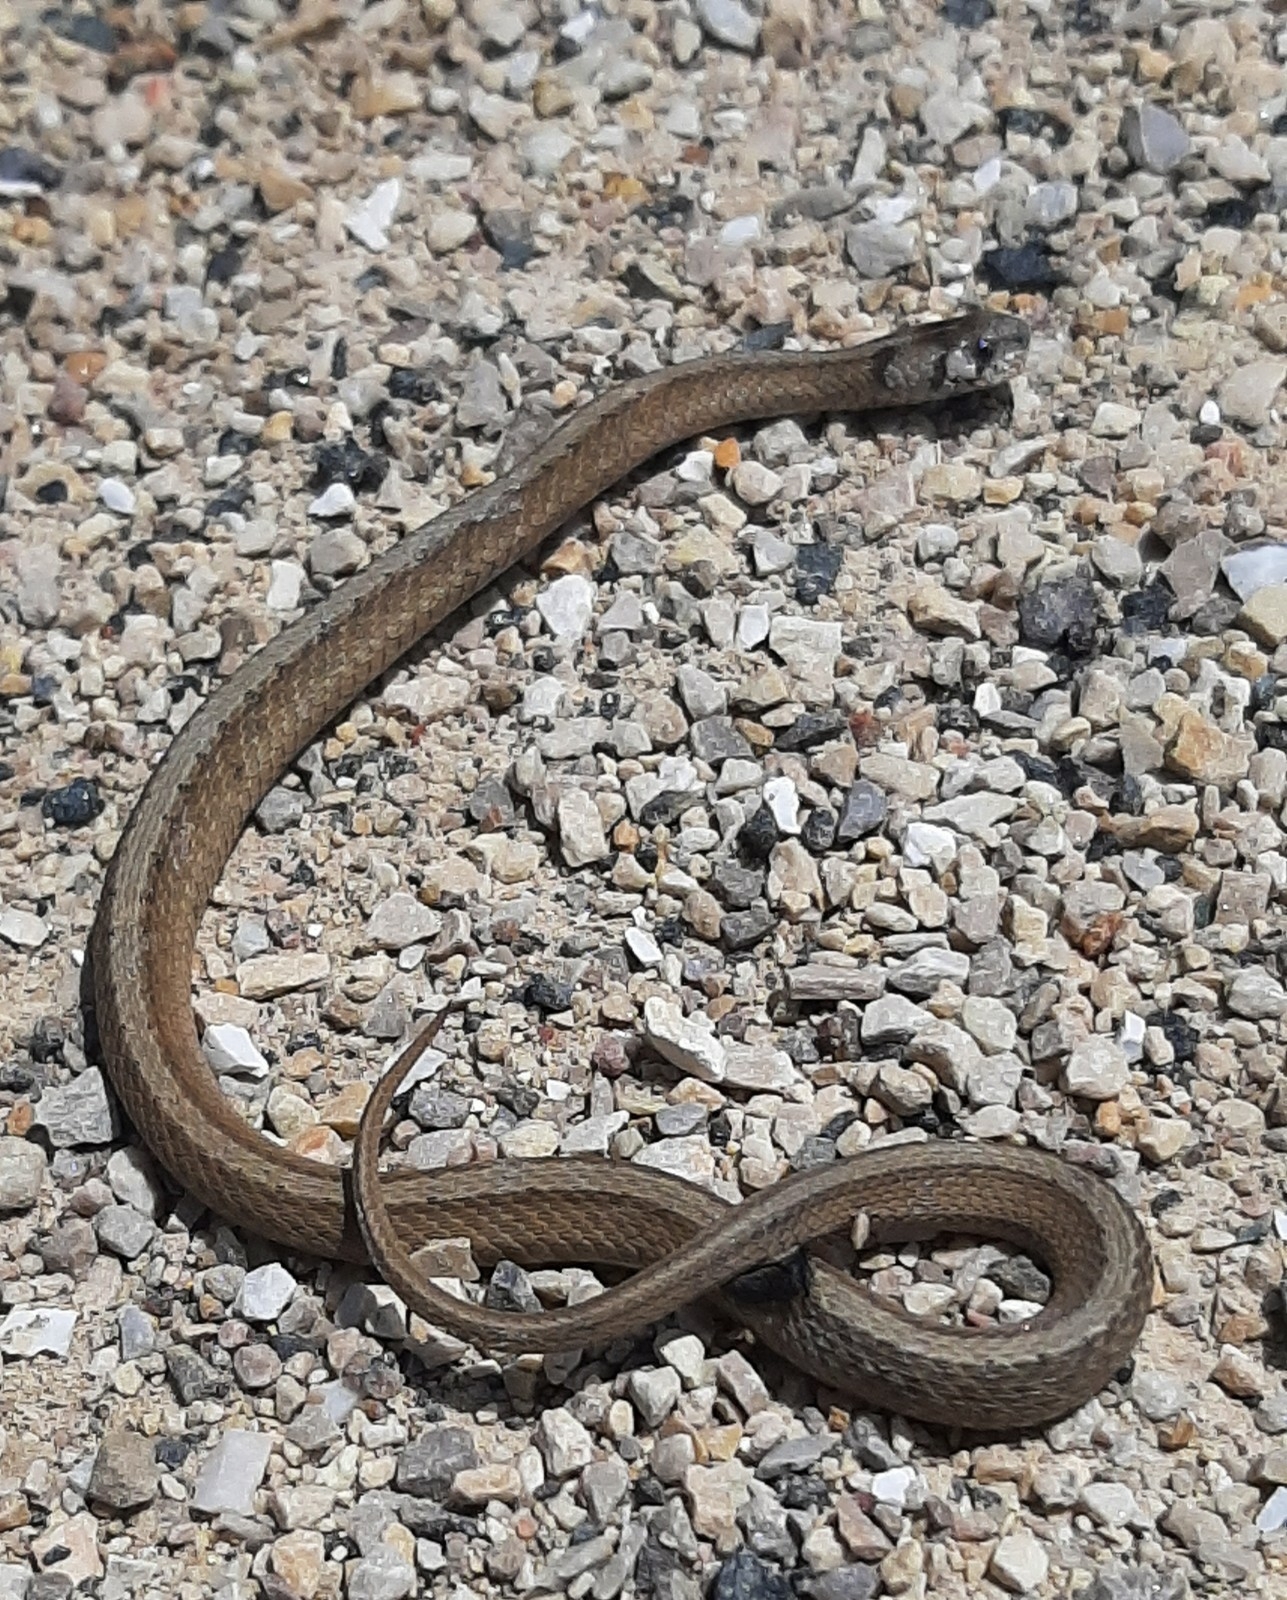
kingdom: Animalia
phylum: Chordata
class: Squamata
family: Colubridae
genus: Storeria
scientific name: Storeria dekayi
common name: (dekay’s) brown snake
